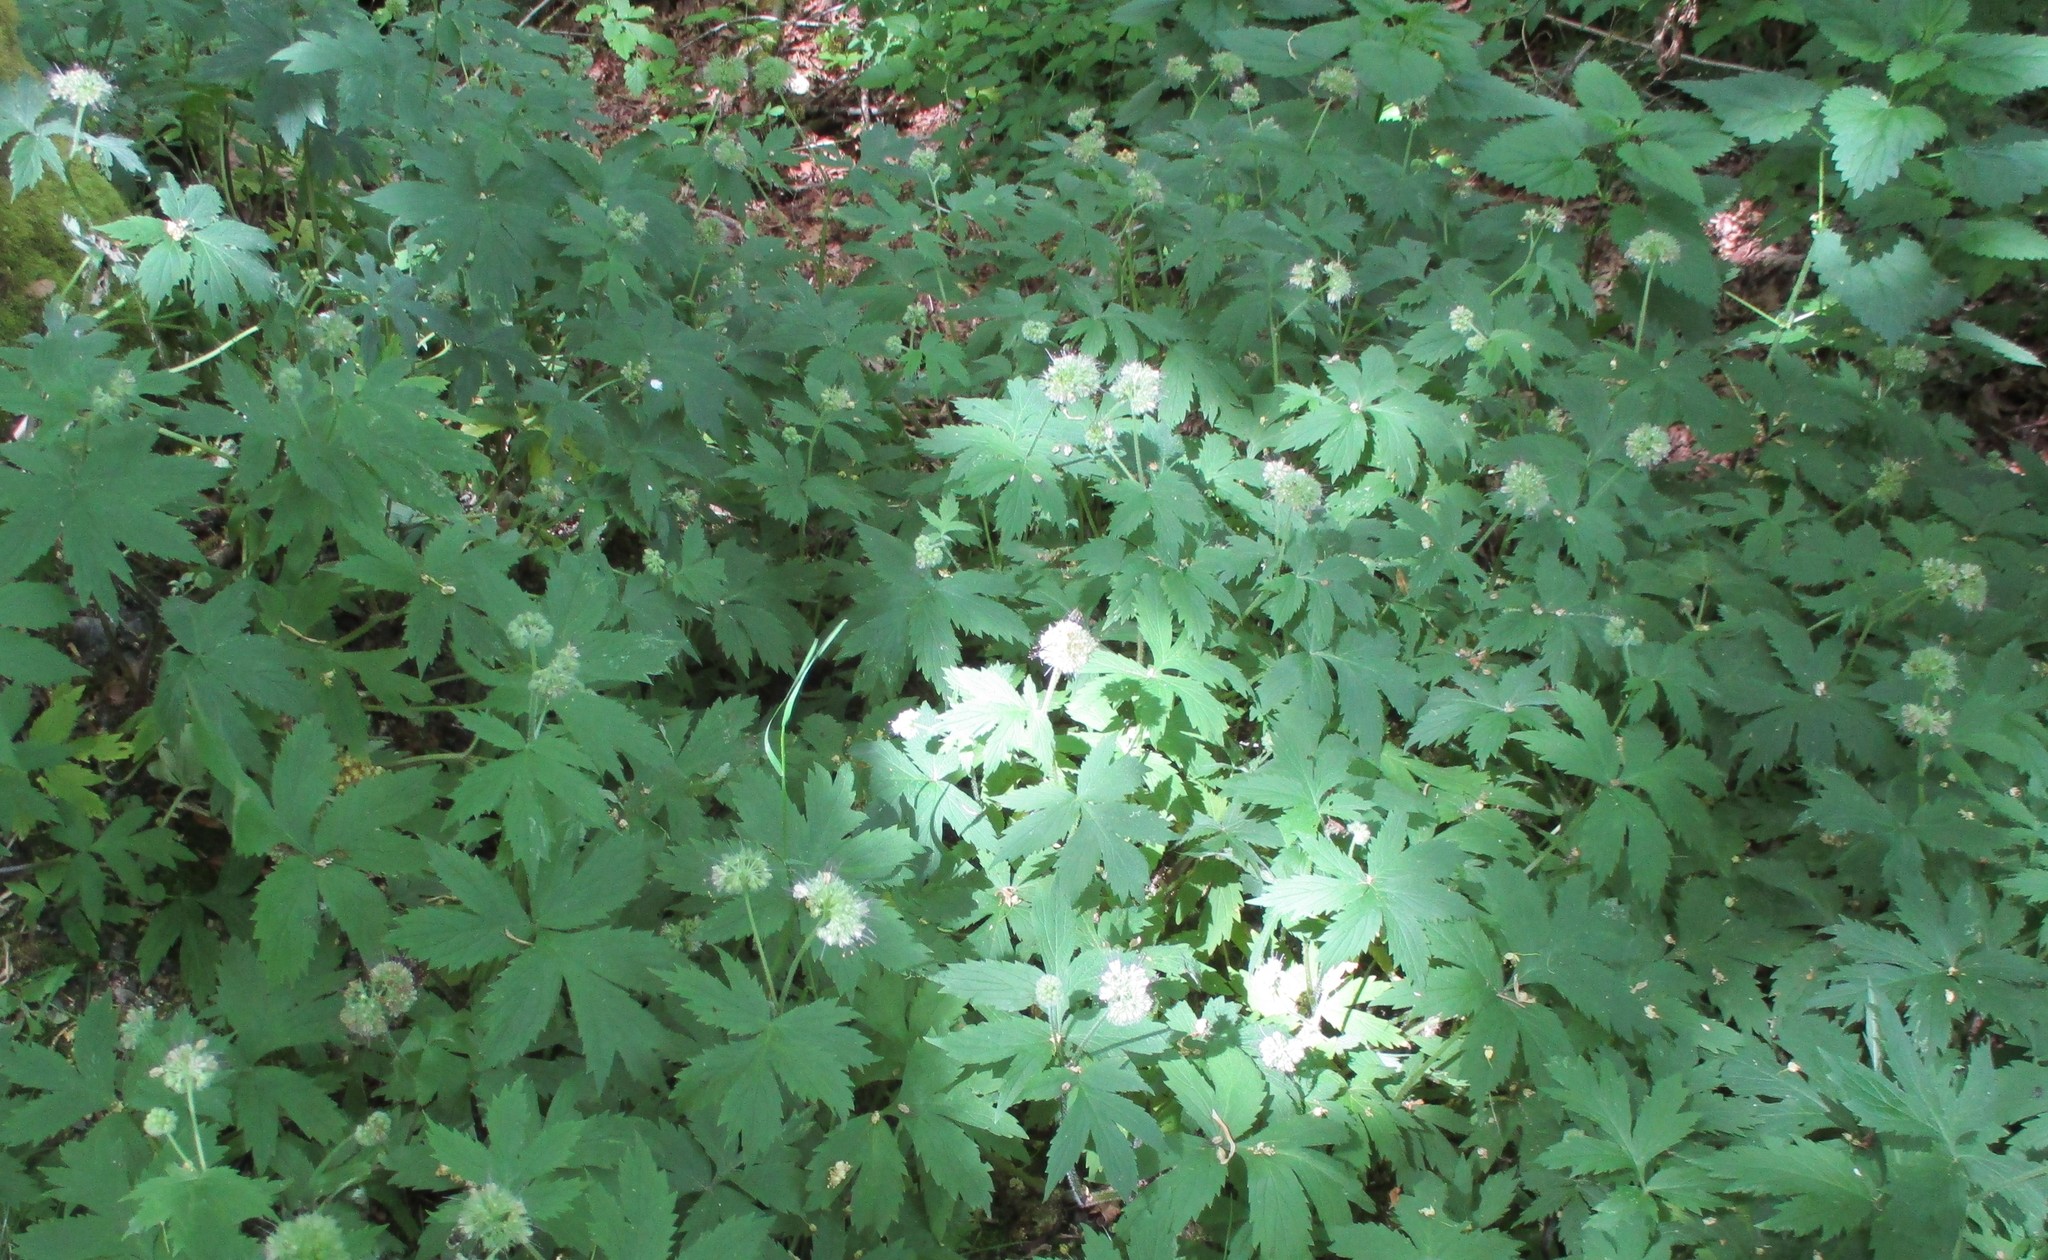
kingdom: Plantae
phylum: Tracheophyta
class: Magnoliopsida
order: Boraginales
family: Hydrophyllaceae
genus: Hydrophyllum
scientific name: Hydrophyllum tenuipes
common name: Pacific waterleaf
